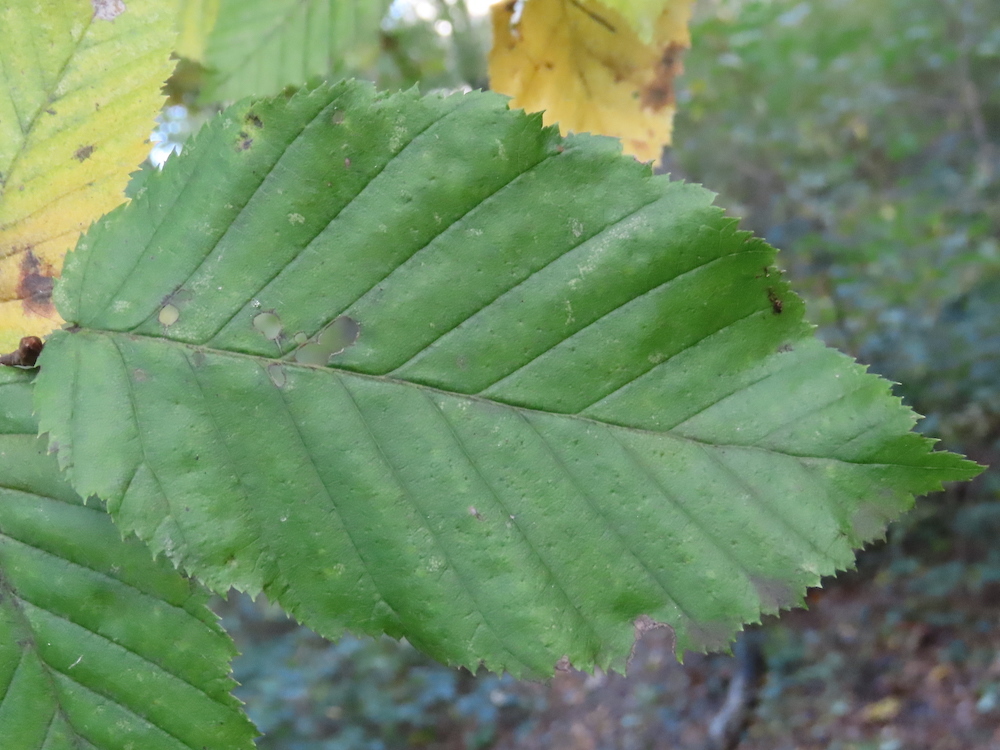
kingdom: Plantae
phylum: Tracheophyta
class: Magnoliopsida
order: Fagales
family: Betulaceae
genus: Carpinus
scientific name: Carpinus betulus
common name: Hornbeam
